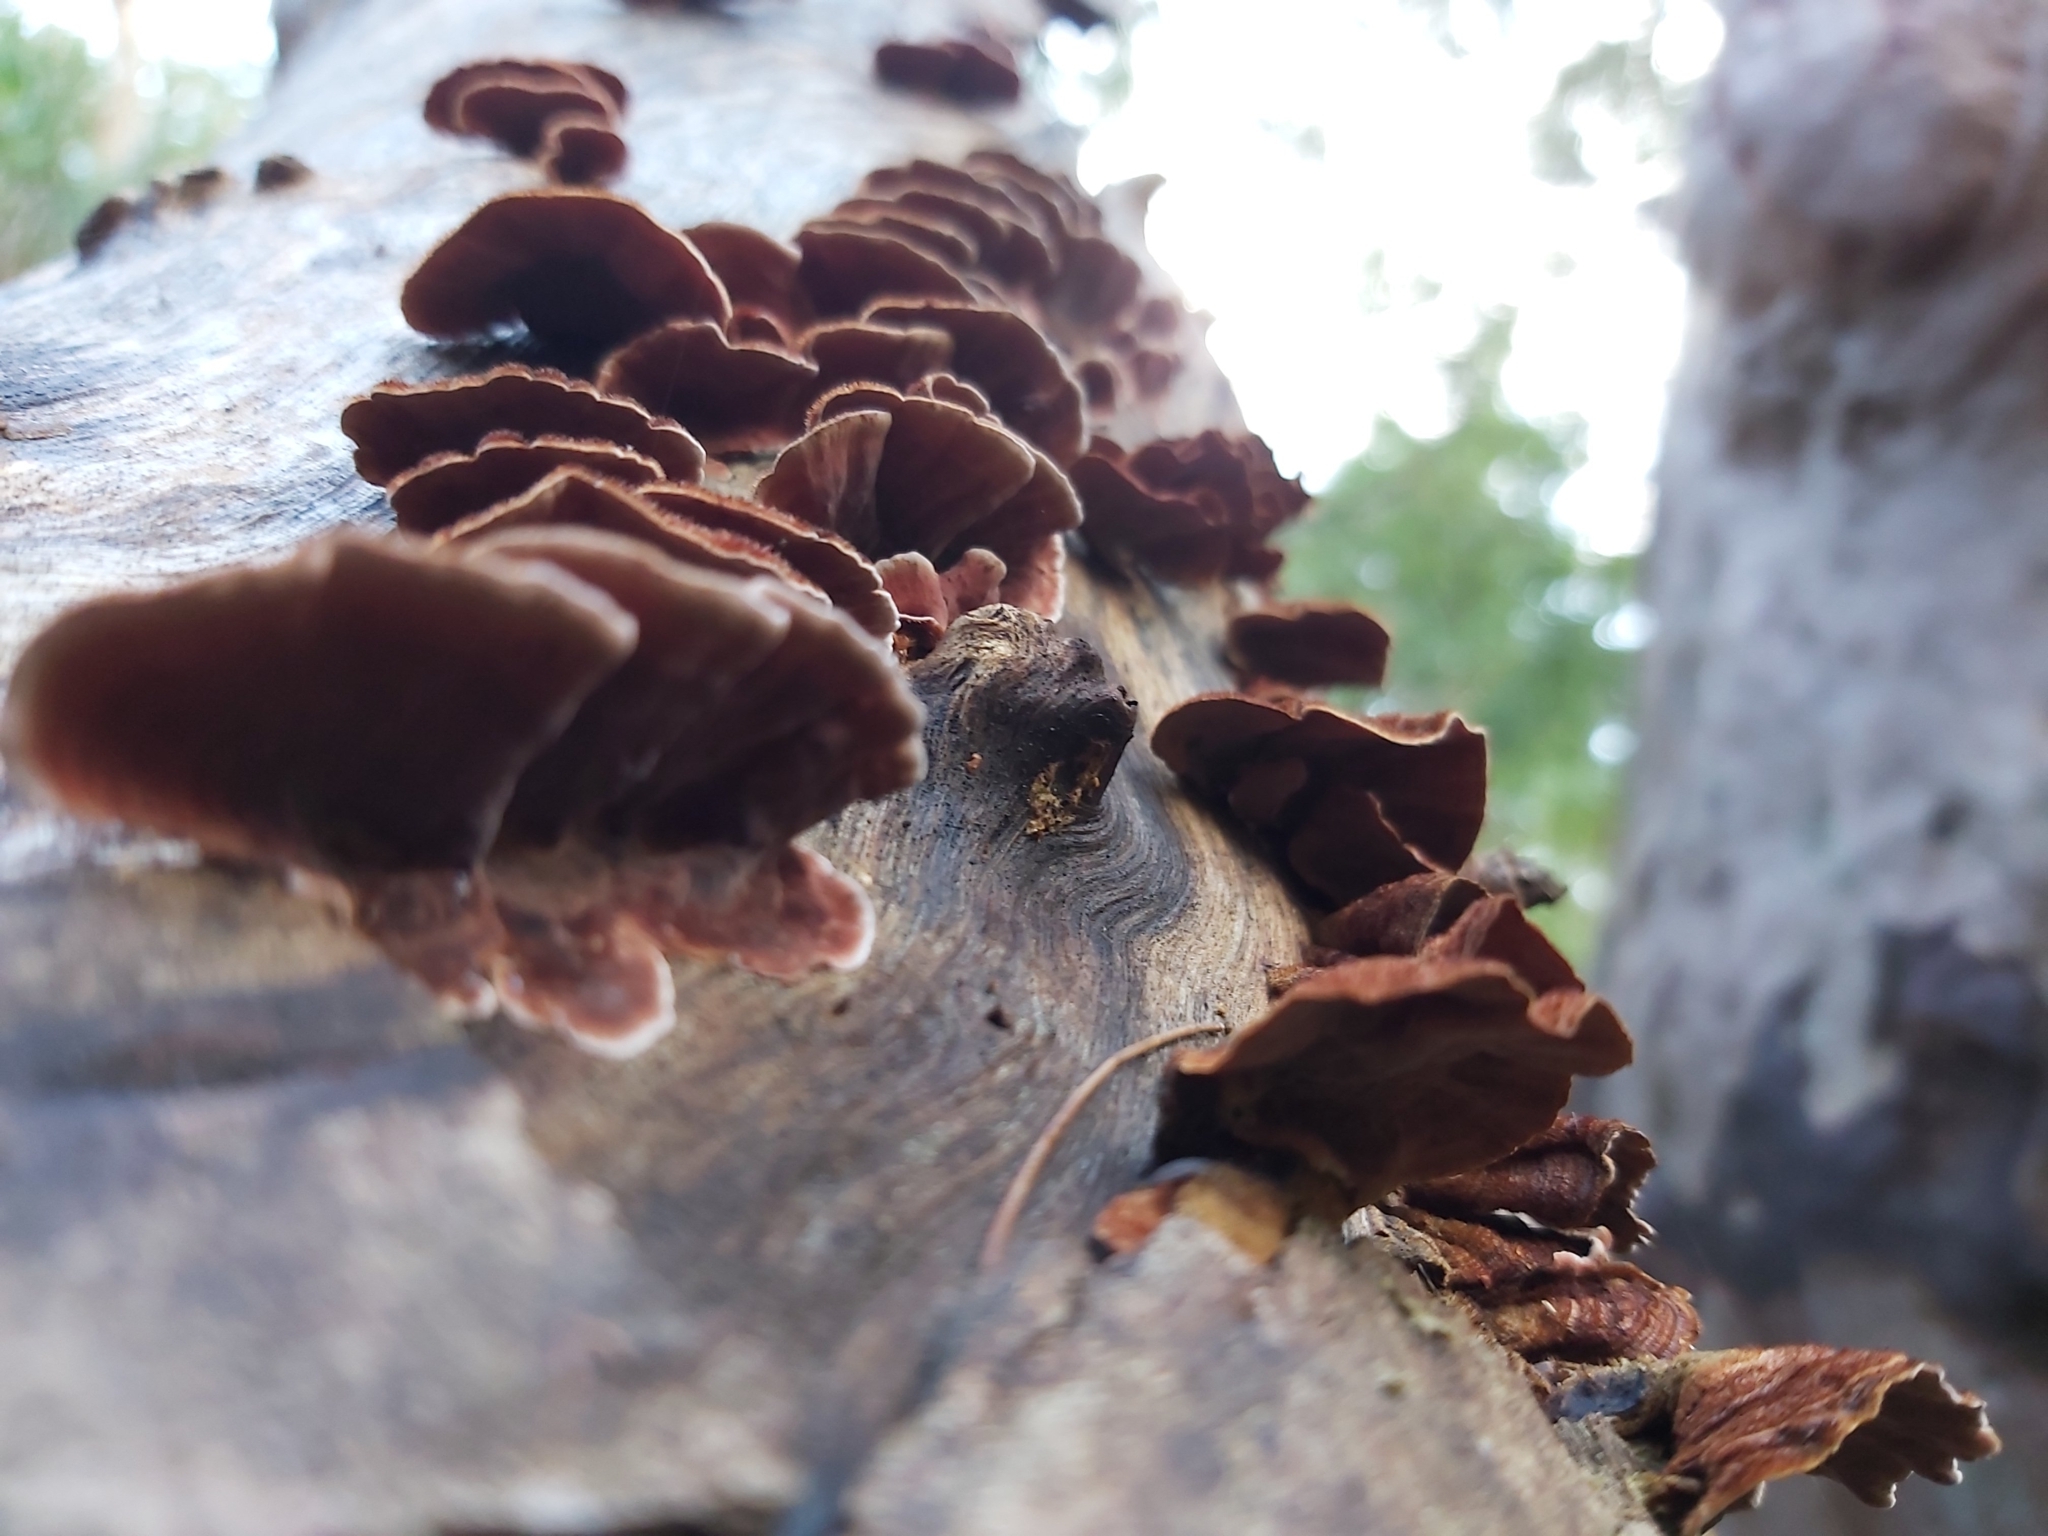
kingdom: Fungi
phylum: Basidiomycota
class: Agaricomycetes
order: Russulales
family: Stereaceae
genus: Xylobolus
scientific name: Xylobolus illudens
